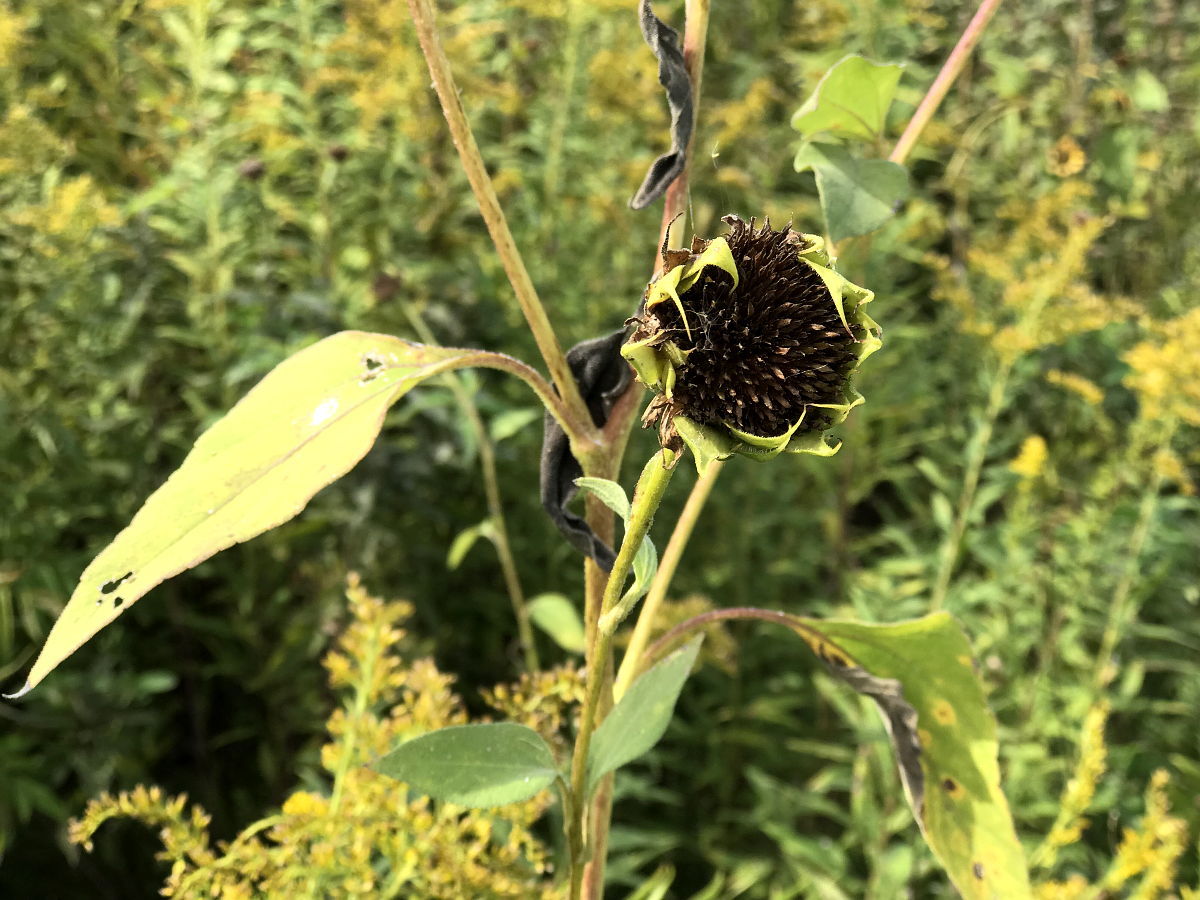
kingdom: Plantae
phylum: Tracheophyta
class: Magnoliopsida
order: Asterales
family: Asteraceae
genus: Helianthus
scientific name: Helianthus annuus
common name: Sunflower
